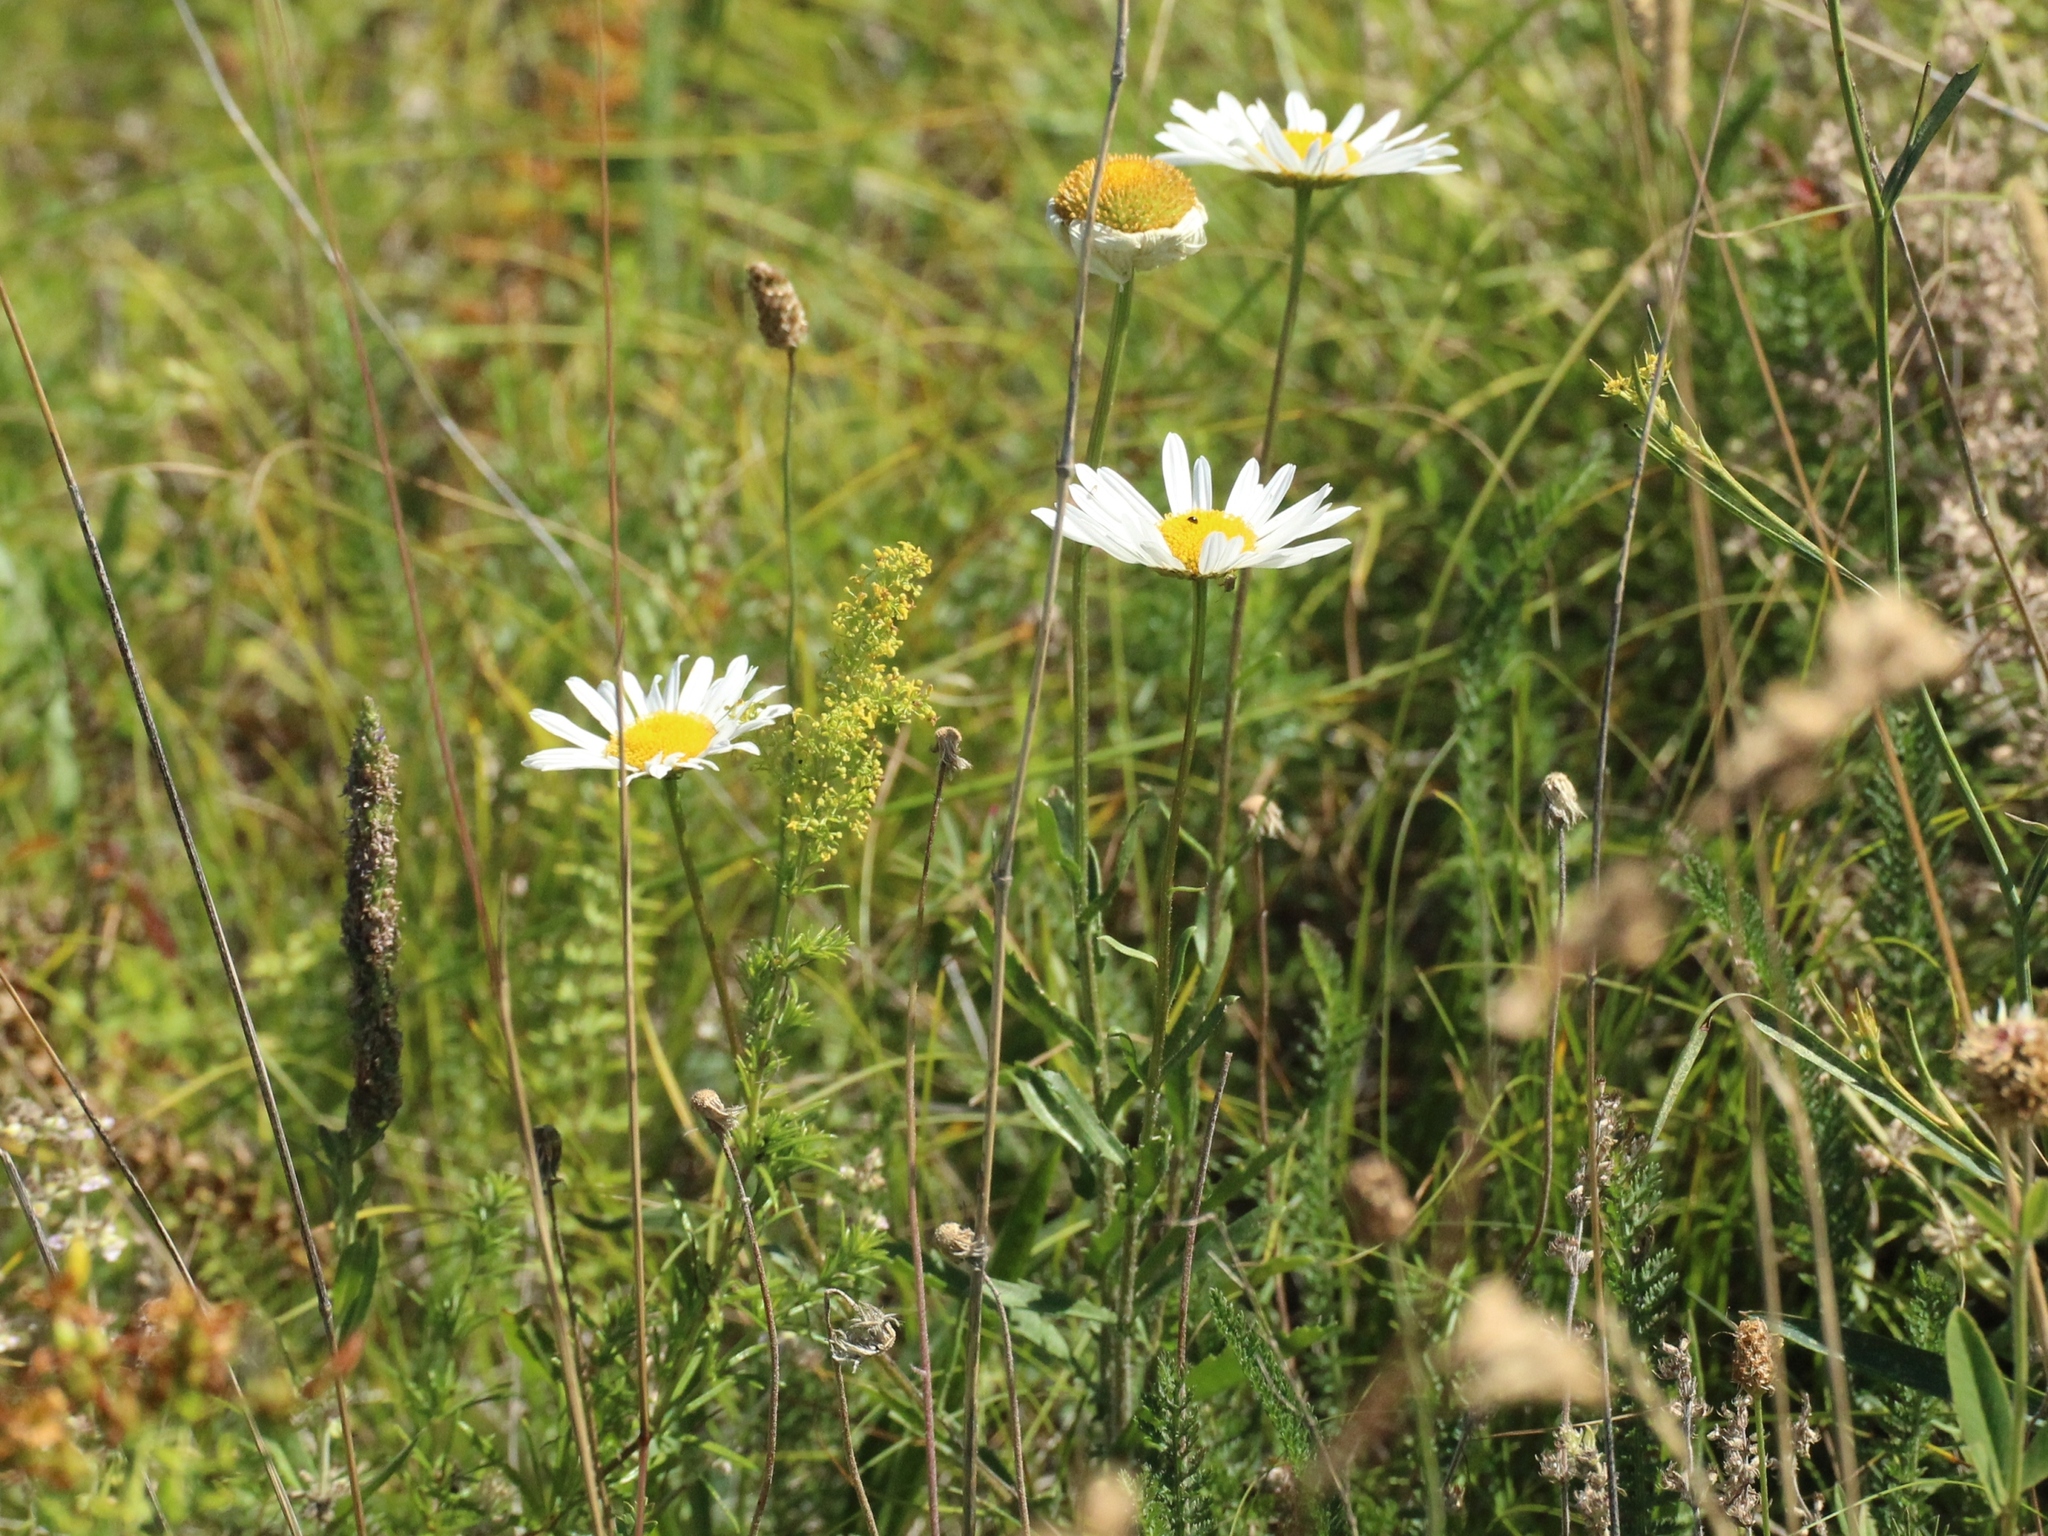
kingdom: Plantae
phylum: Tracheophyta
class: Magnoliopsida
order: Asterales
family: Asteraceae
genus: Leucanthemum
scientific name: Leucanthemum vulgare
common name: Oxeye daisy
